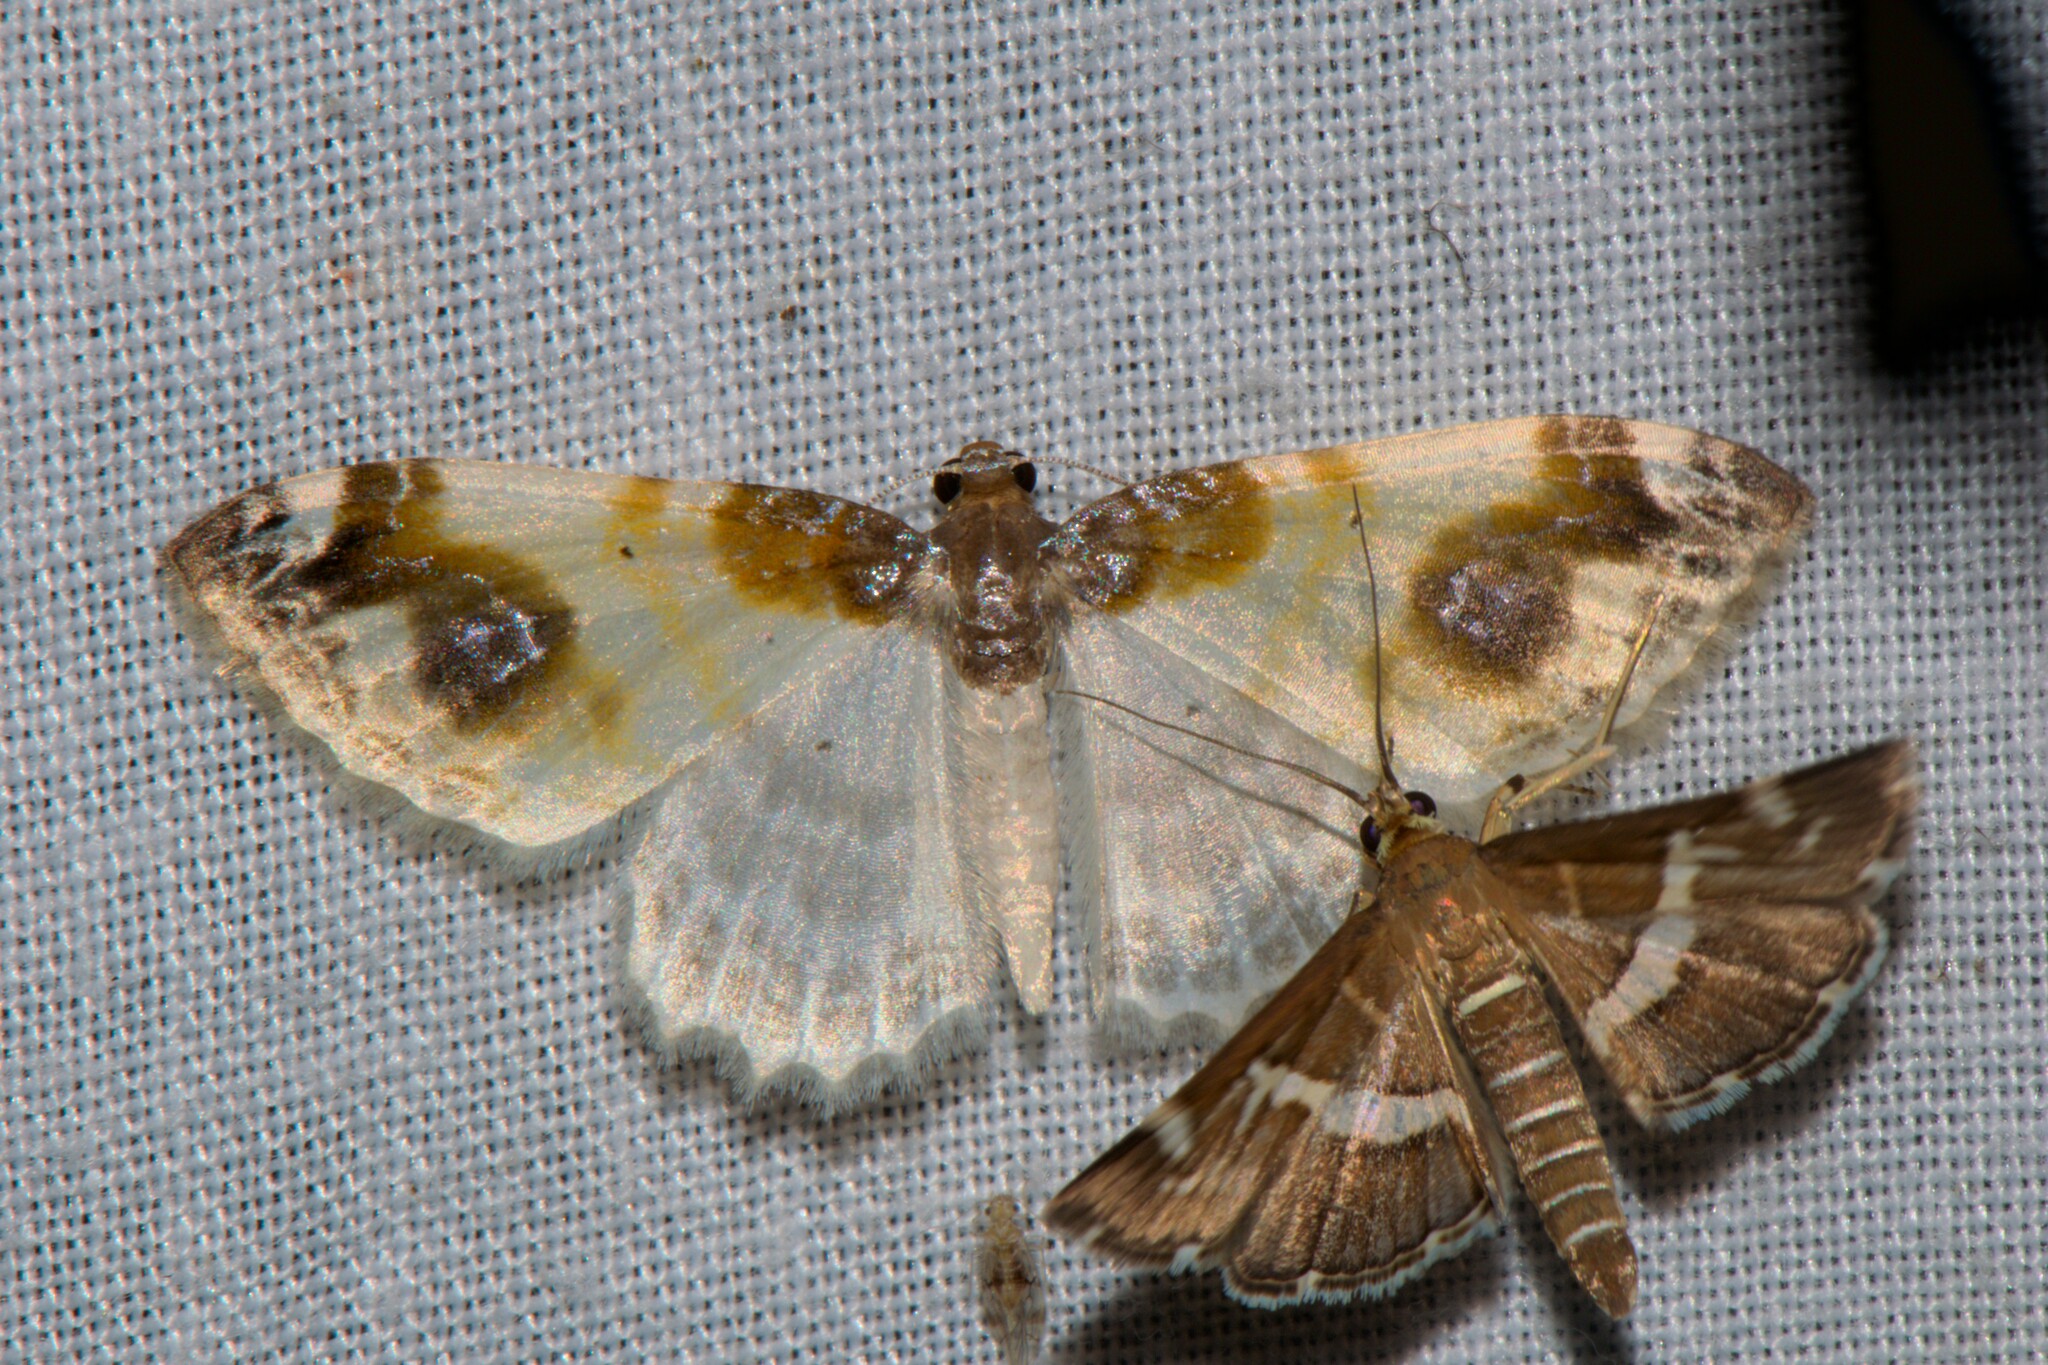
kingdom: Animalia
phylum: Arthropoda
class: Insecta
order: Lepidoptera
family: Geometridae
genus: Agnibesa
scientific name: Agnibesa pictaria
